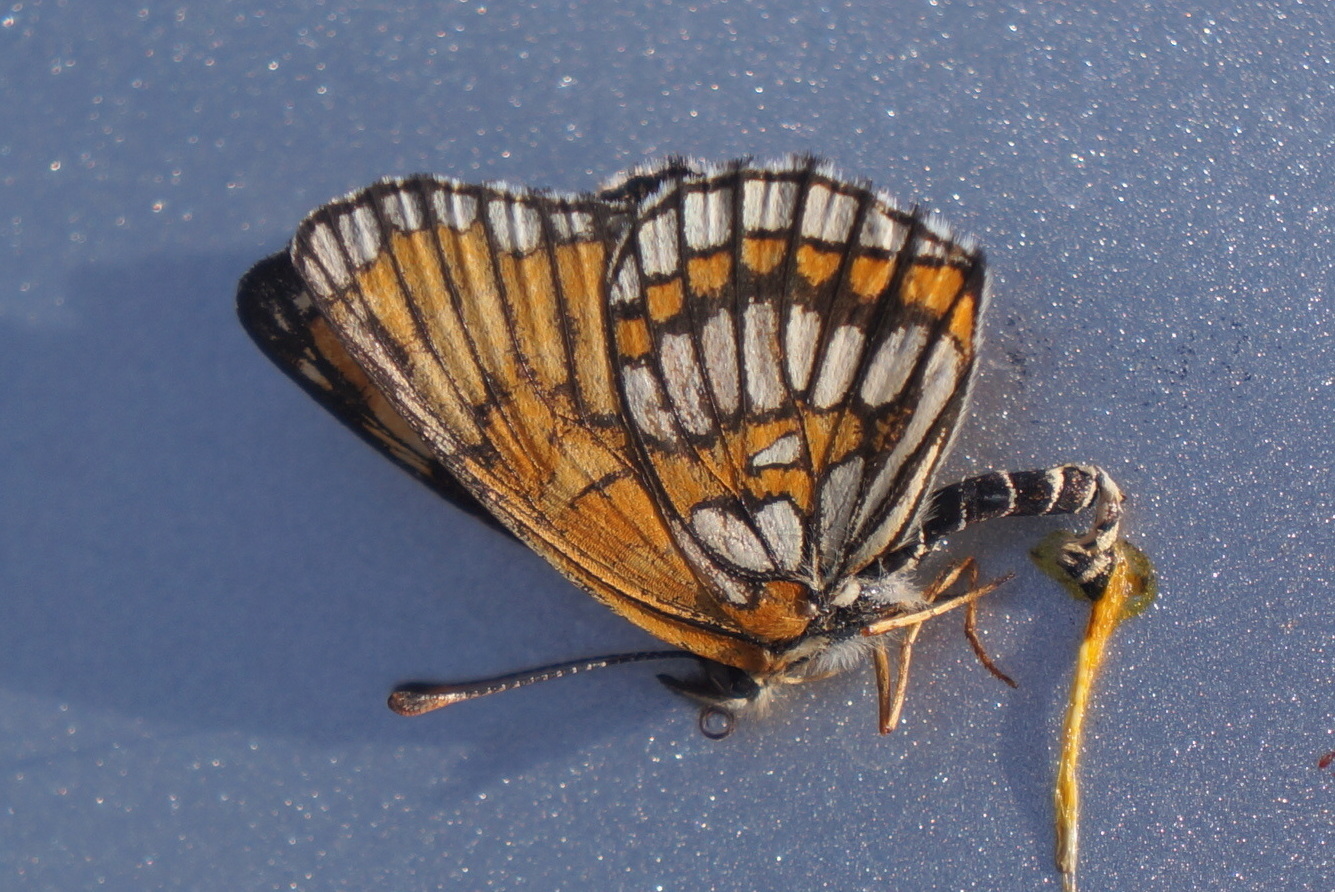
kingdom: Animalia
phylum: Arthropoda
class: Insecta
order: Lepidoptera
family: Nymphalidae
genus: Thessalia
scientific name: Thessalia theona
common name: Nymphalid moth
